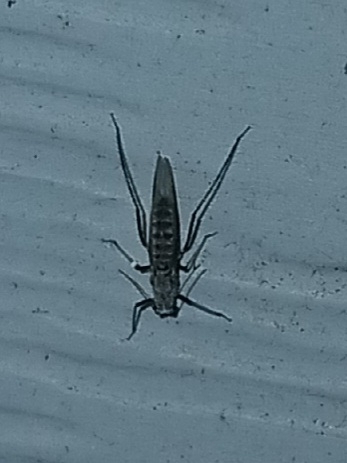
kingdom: Animalia
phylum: Arthropoda
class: Insecta
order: Hemiptera
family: Aphididae
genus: Eulachnus
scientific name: Eulachnus rileyi
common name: Active gray pine needle aphid
